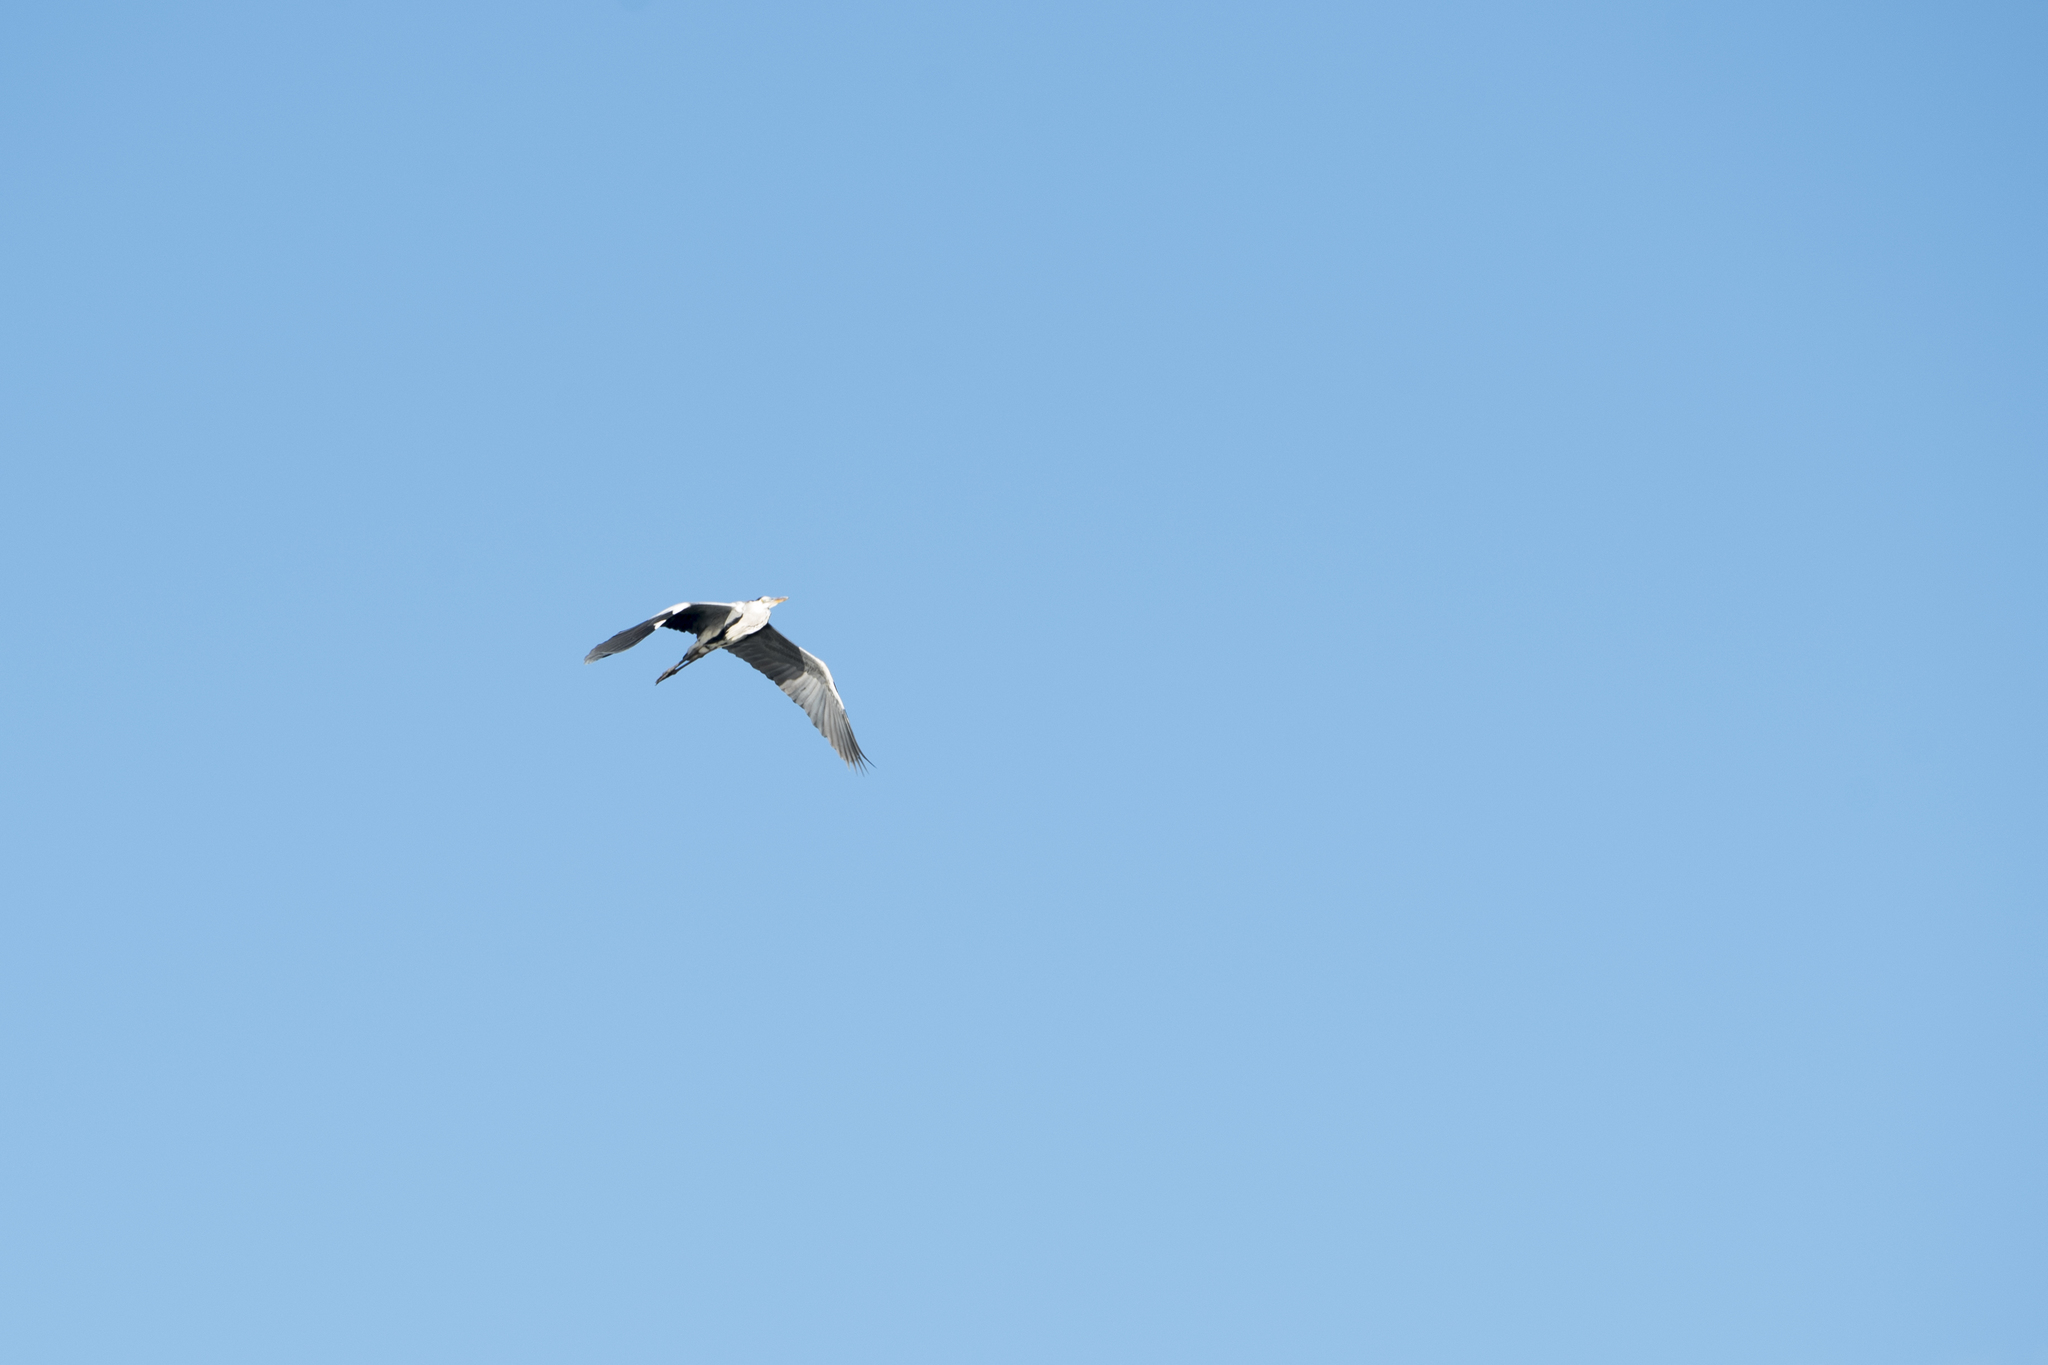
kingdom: Animalia
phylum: Chordata
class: Aves
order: Pelecaniformes
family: Ardeidae
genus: Ardea
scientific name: Ardea cinerea
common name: Grey heron
